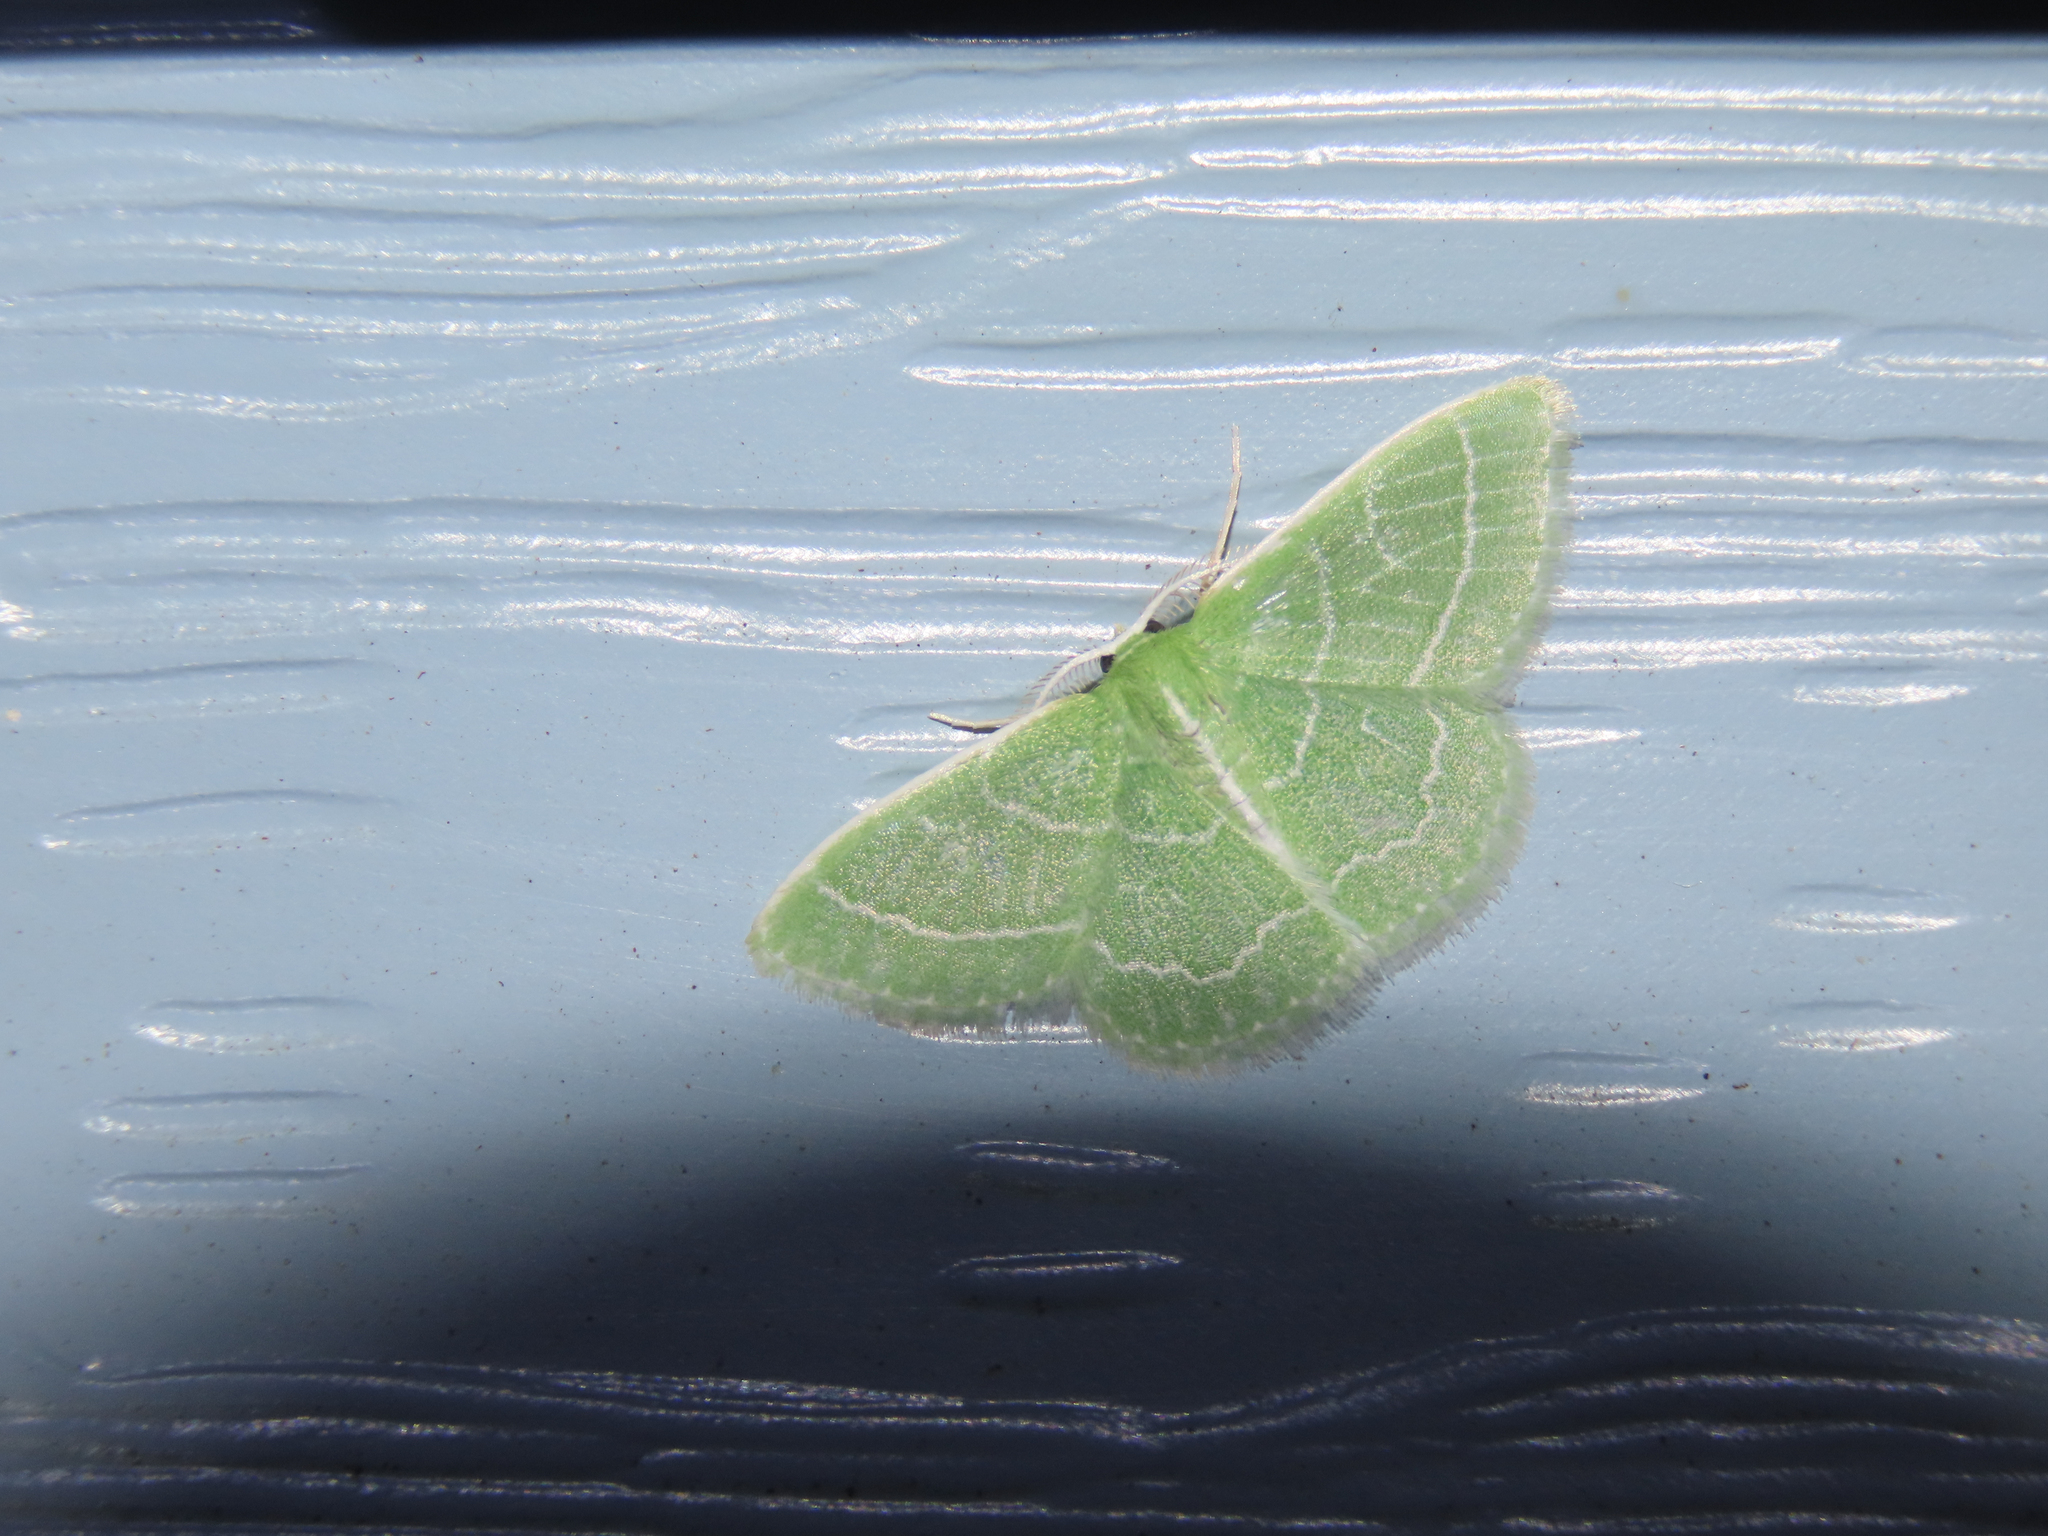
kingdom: Animalia
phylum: Arthropoda
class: Insecta
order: Lepidoptera
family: Geometridae
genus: Synchlora
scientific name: Synchlora aerata
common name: Wavy-lined emerald
